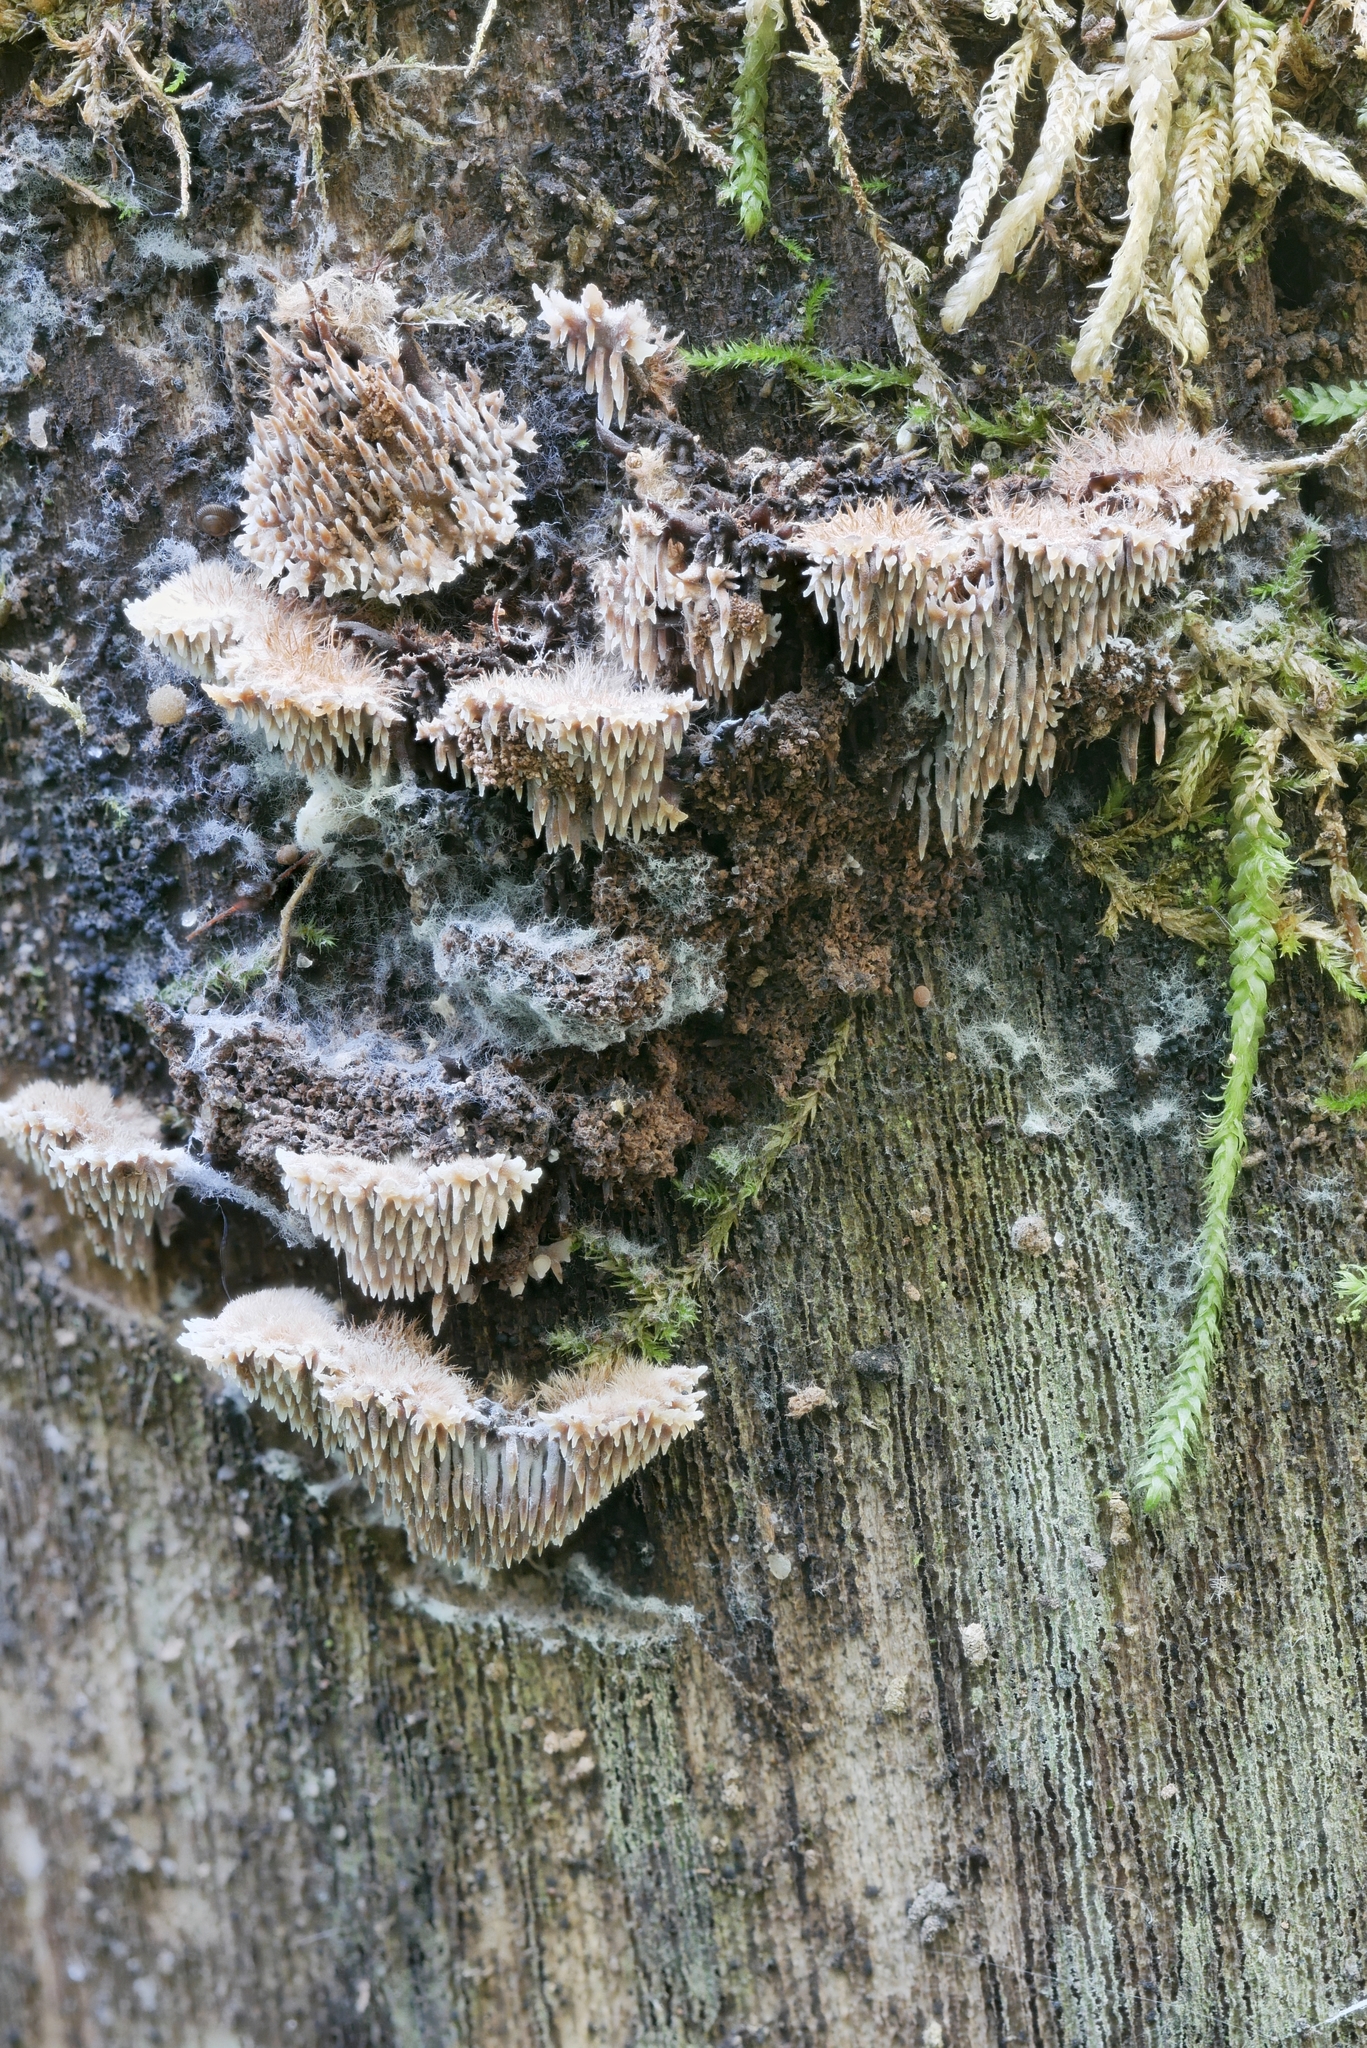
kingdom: Fungi
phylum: Basidiomycota
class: Agaricomycetes
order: Russulales
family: Bondarzewiaceae
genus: Gloiodon
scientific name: Gloiodon strigosus
